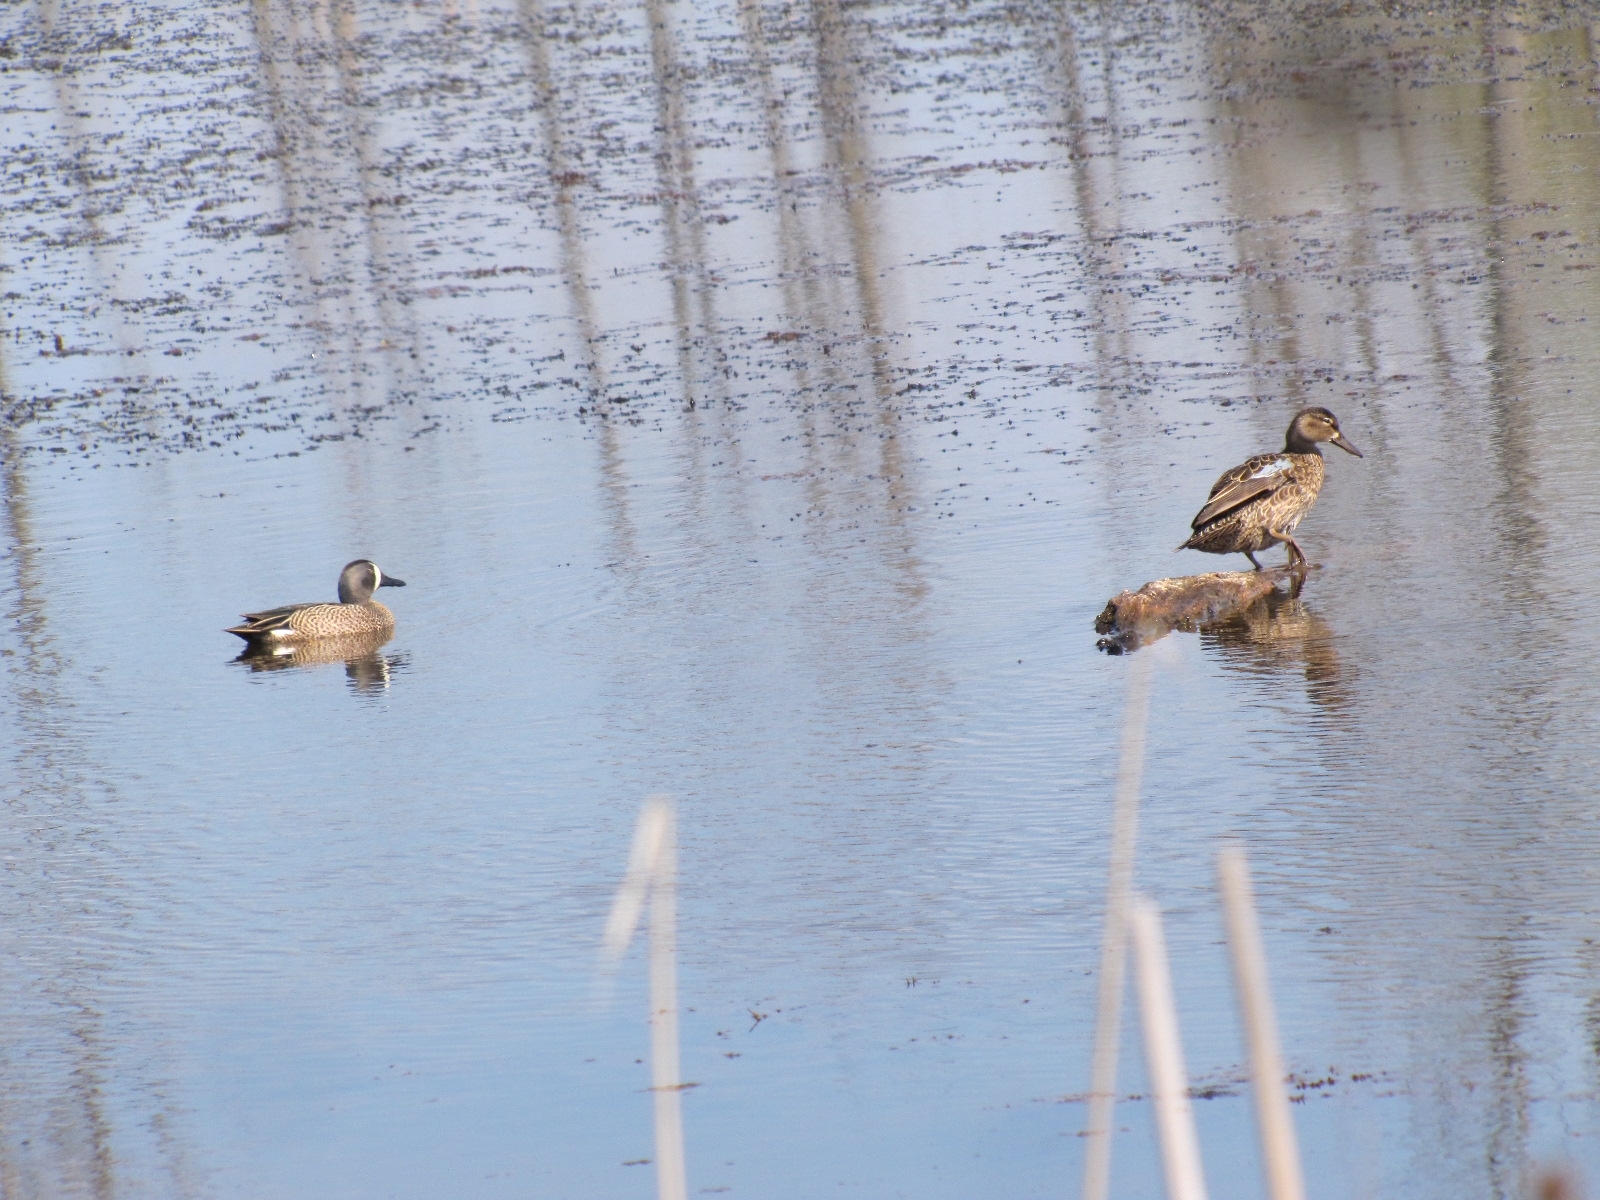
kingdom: Animalia
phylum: Chordata
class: Aves
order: Anseriformes
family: Anatidae
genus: Spatula
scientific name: Spatula discors
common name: Blue-winged teal
